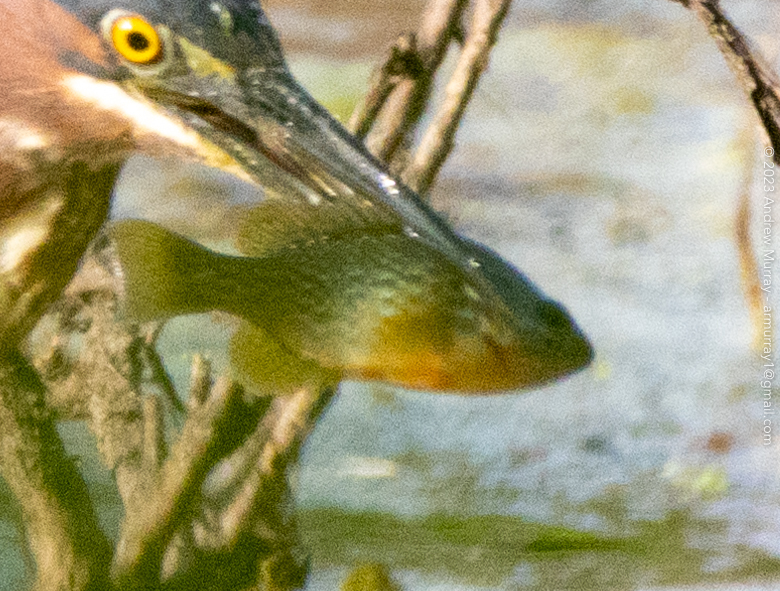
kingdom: Animalia
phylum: Chordata
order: Perciformes
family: Centrarchidae
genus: Lepomis
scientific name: Lepomis gibbosus
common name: Pumpkinseed
